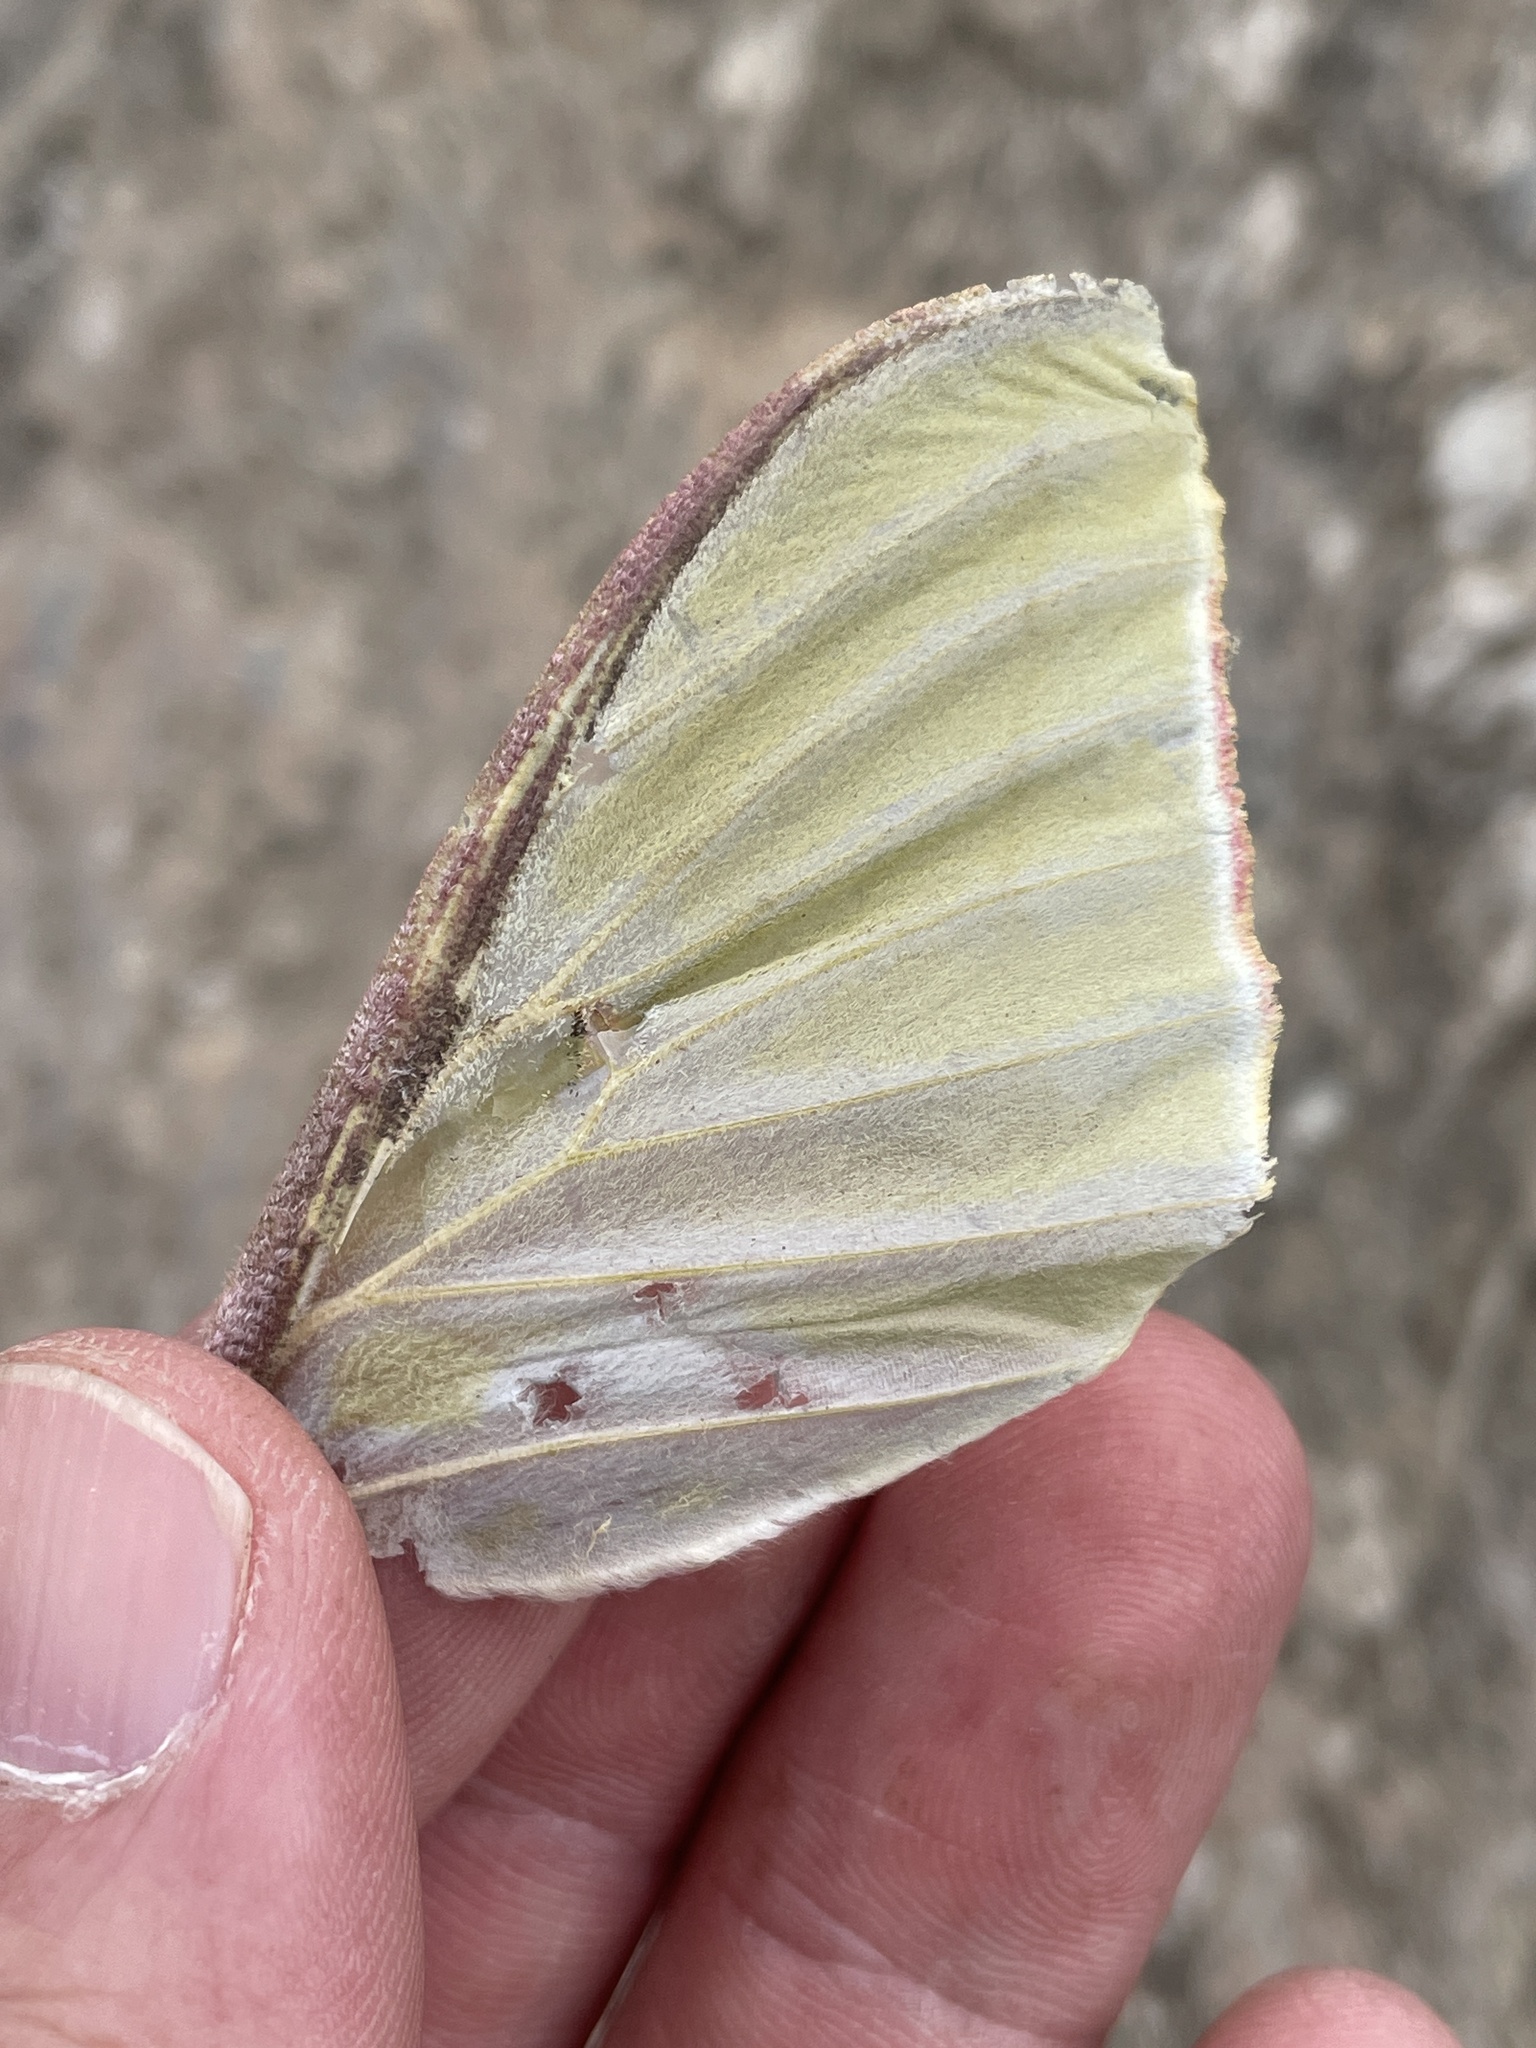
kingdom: Animalia
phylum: Arthropoda
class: Insecta
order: Lepidoptera
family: Saturniidae
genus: Actias
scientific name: Actias luna
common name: Luna moth
